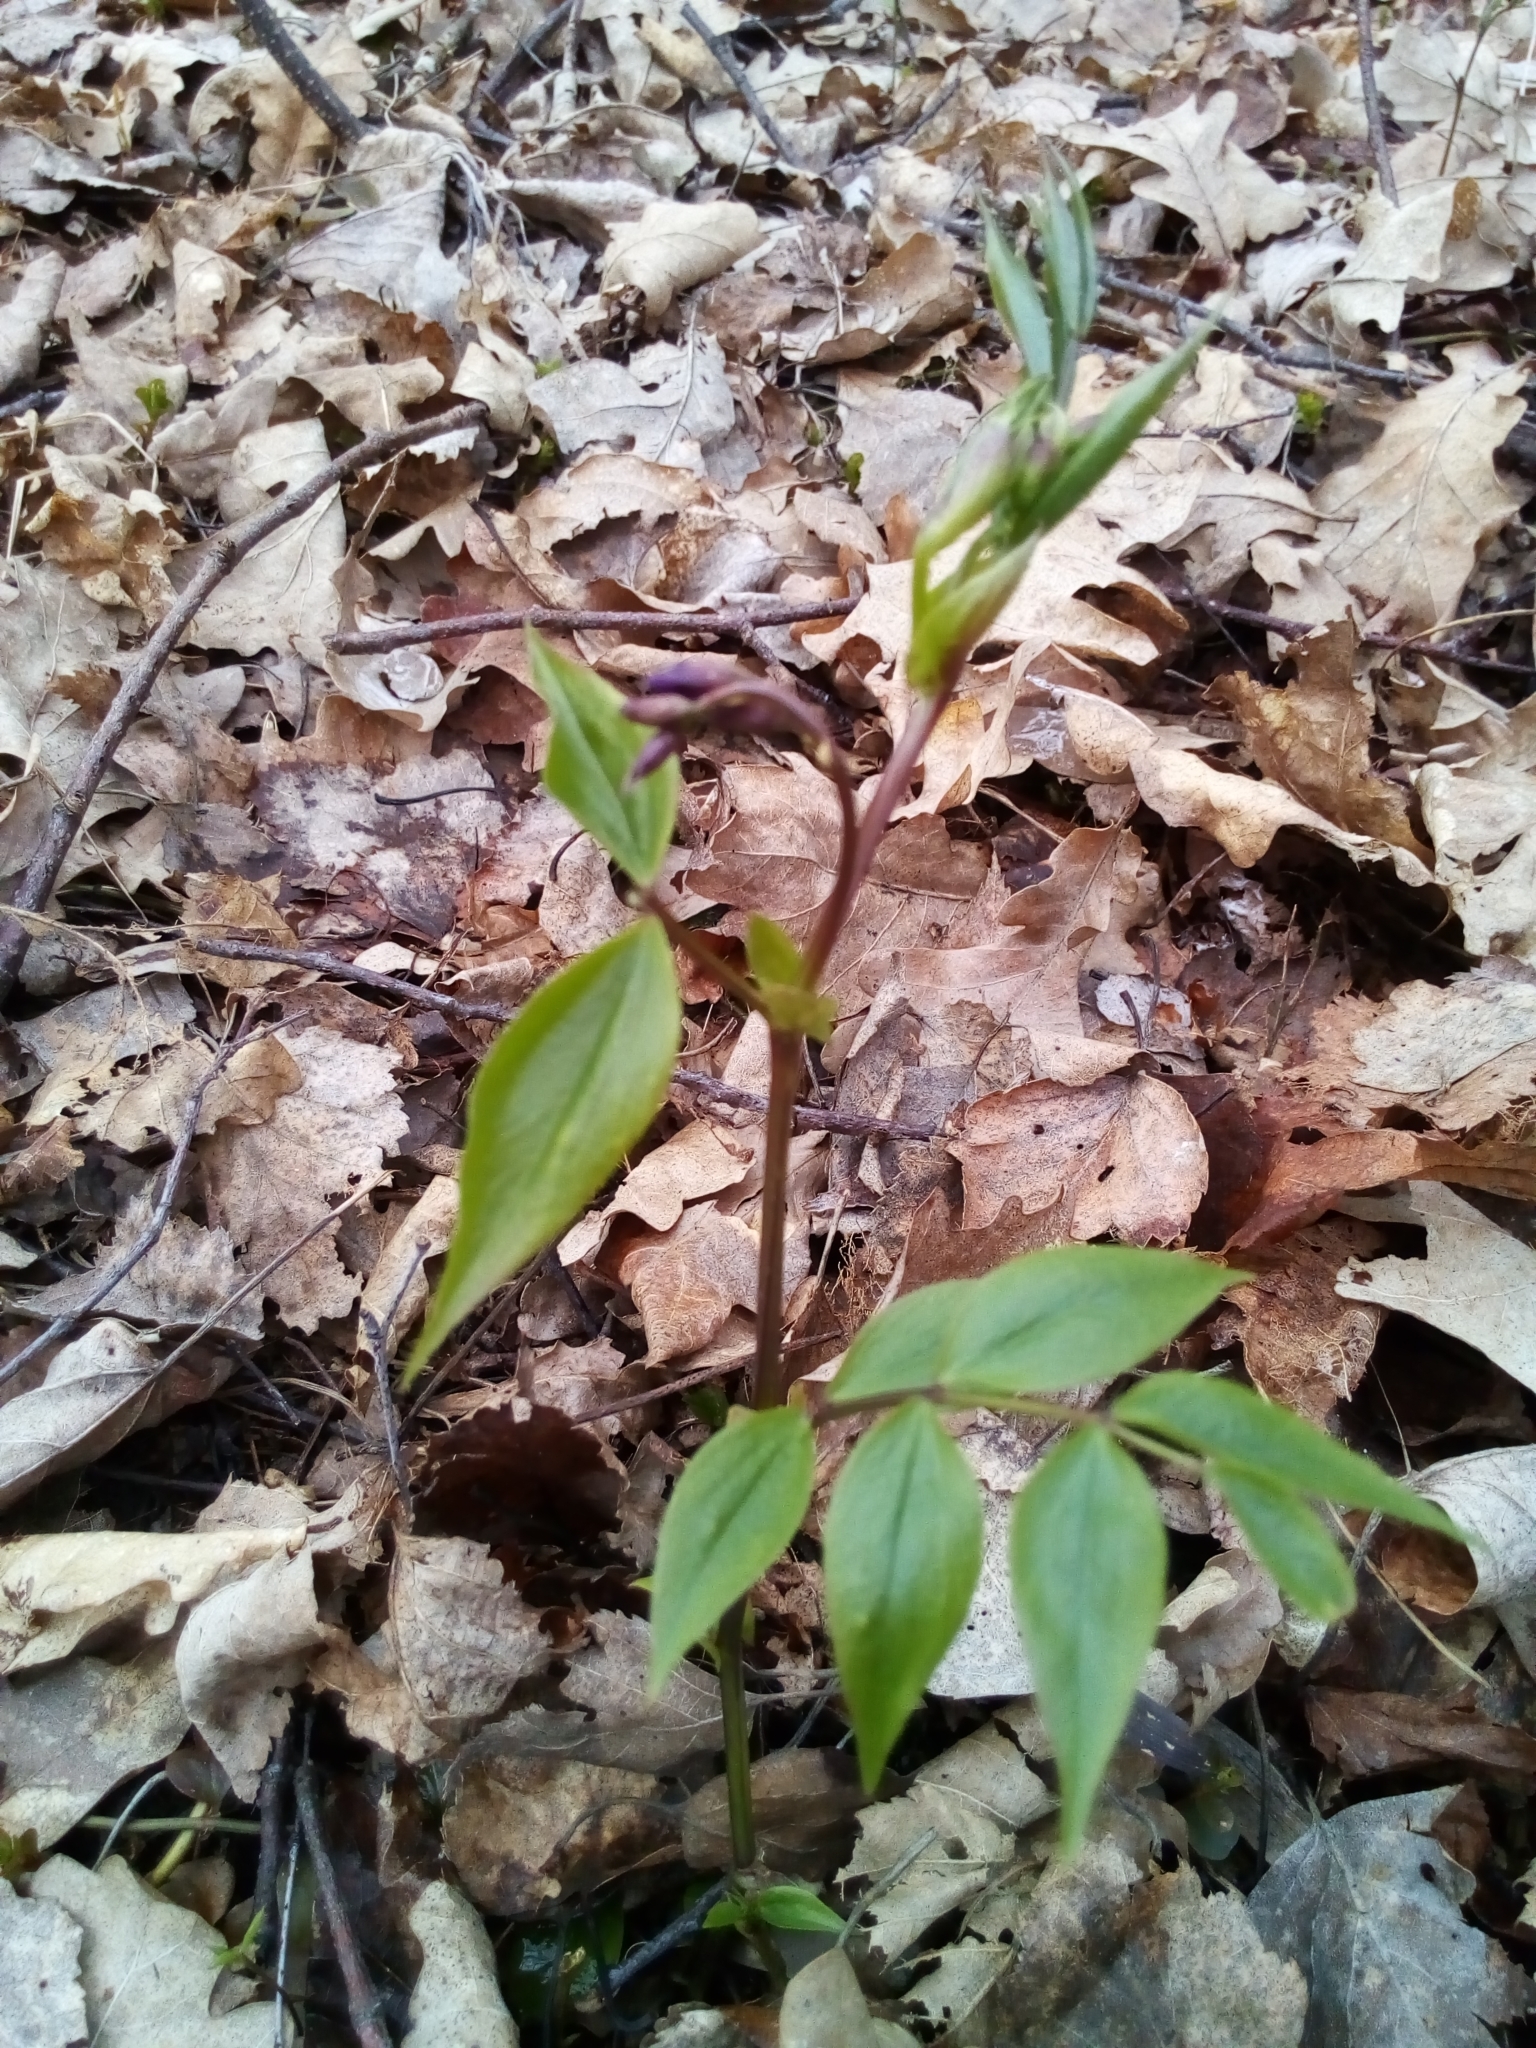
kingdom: Plantae
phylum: Tracheophyta
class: Magnoliopsida
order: Fabales
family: Fabaceae
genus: Lathyrus
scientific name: Lathyrus vernus
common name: Spring pea
